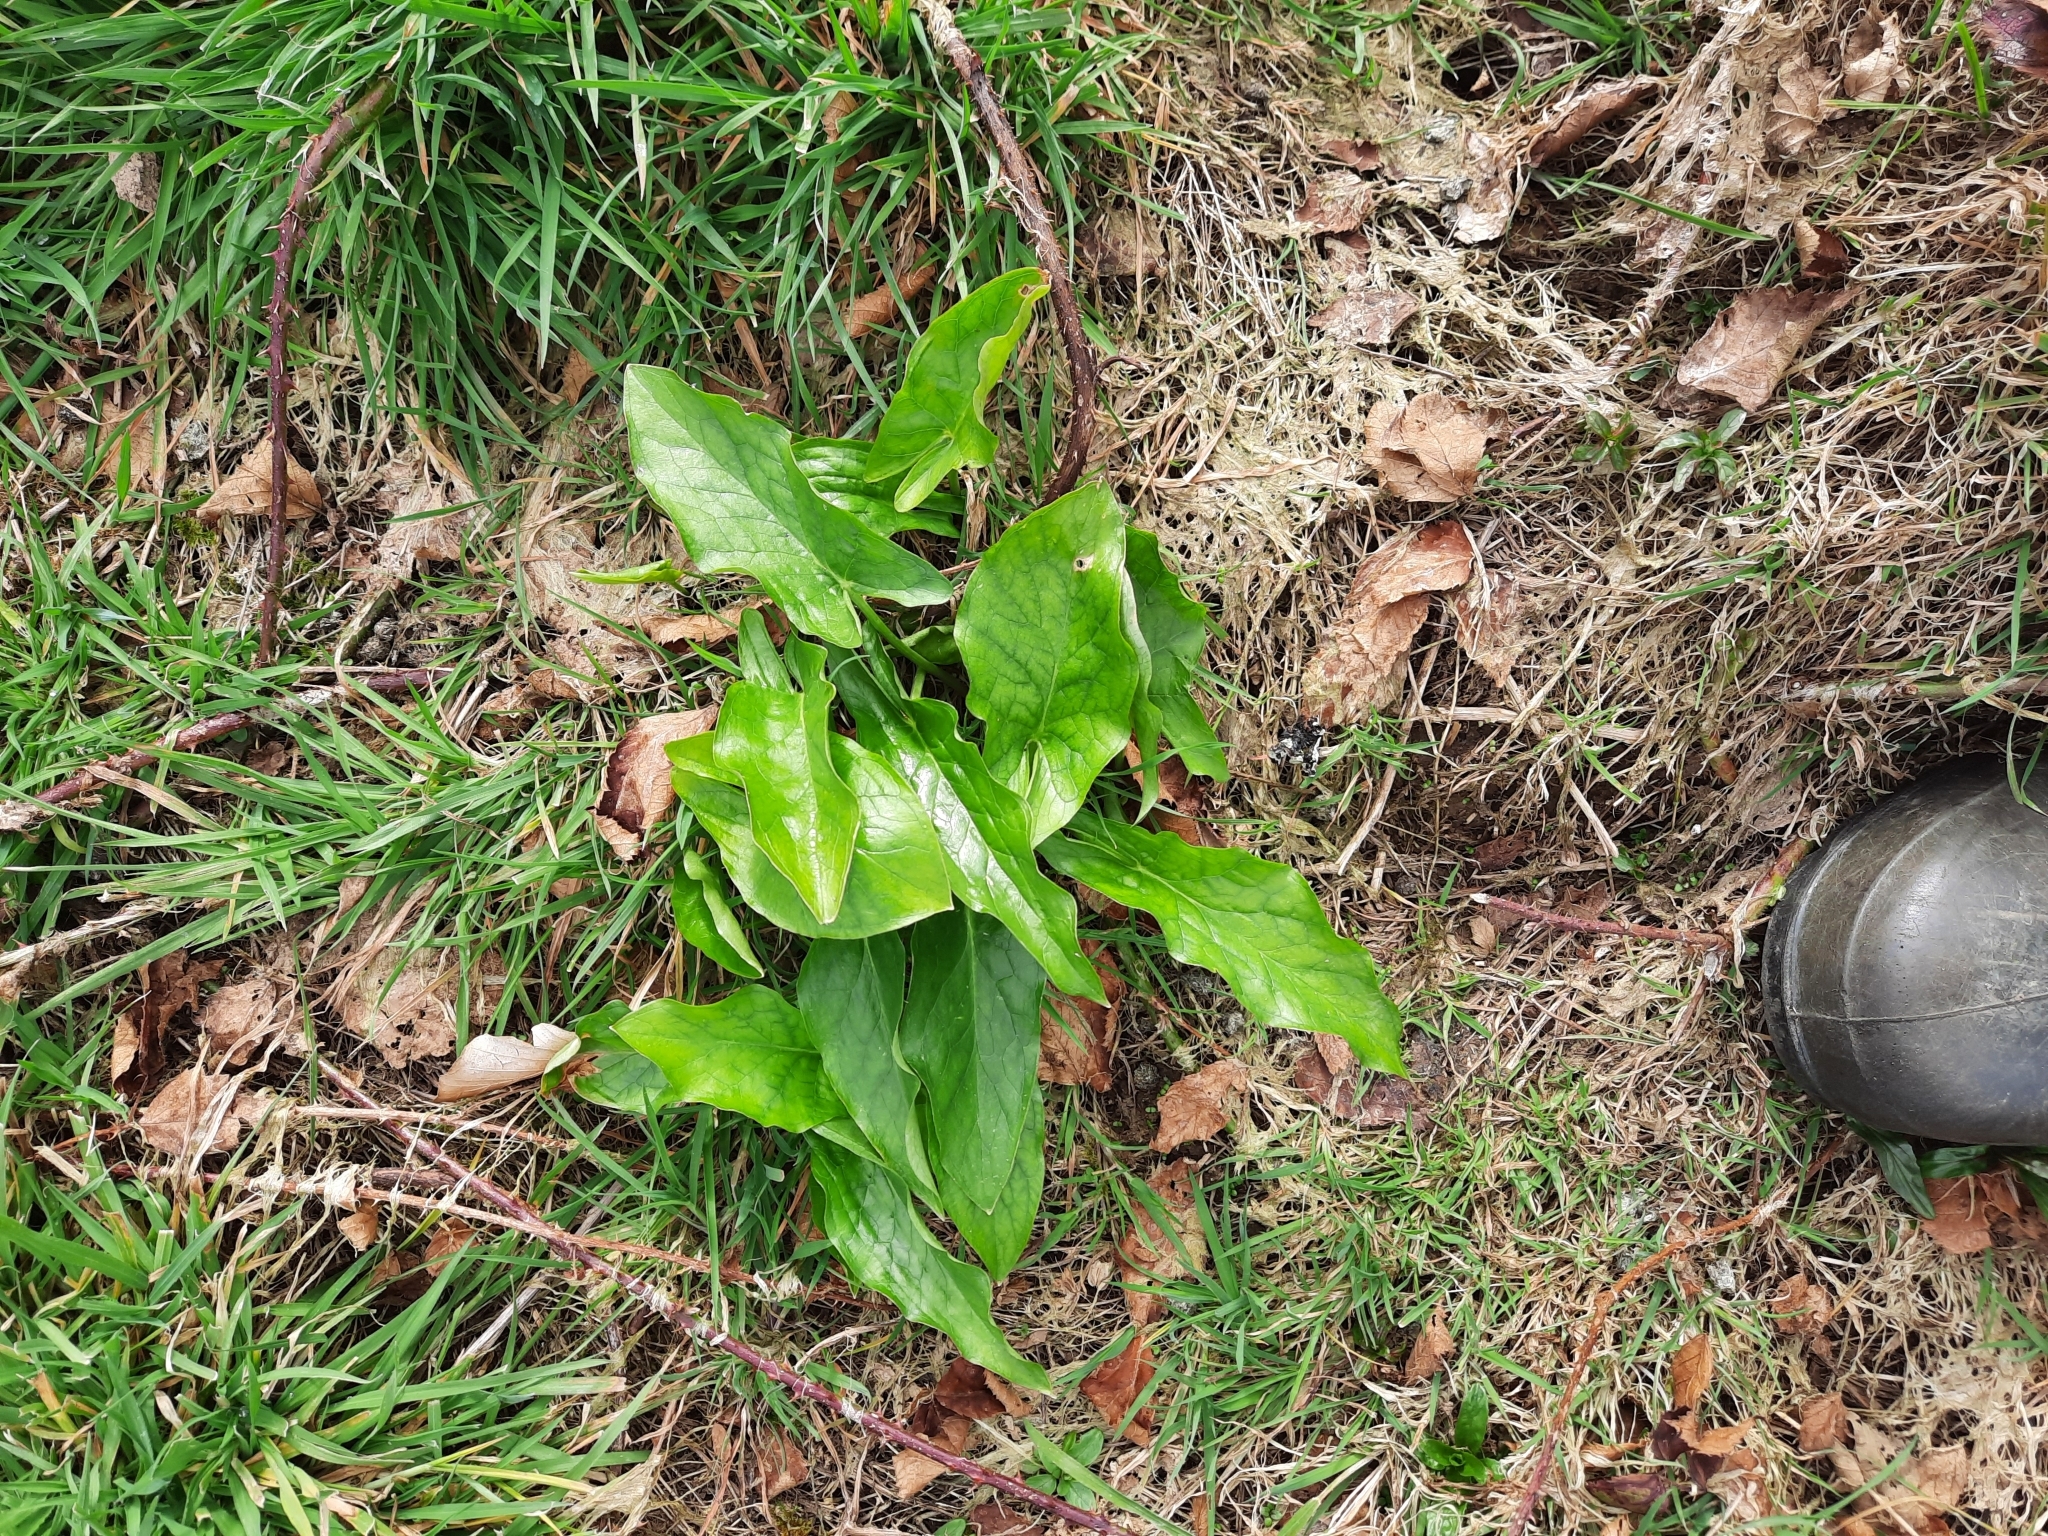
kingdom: Plantae
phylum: Tracheophyta
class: Liliopsida
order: Alismatales
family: Araceae
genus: Arum
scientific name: Arum maculatum
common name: Lords-and-ladies
